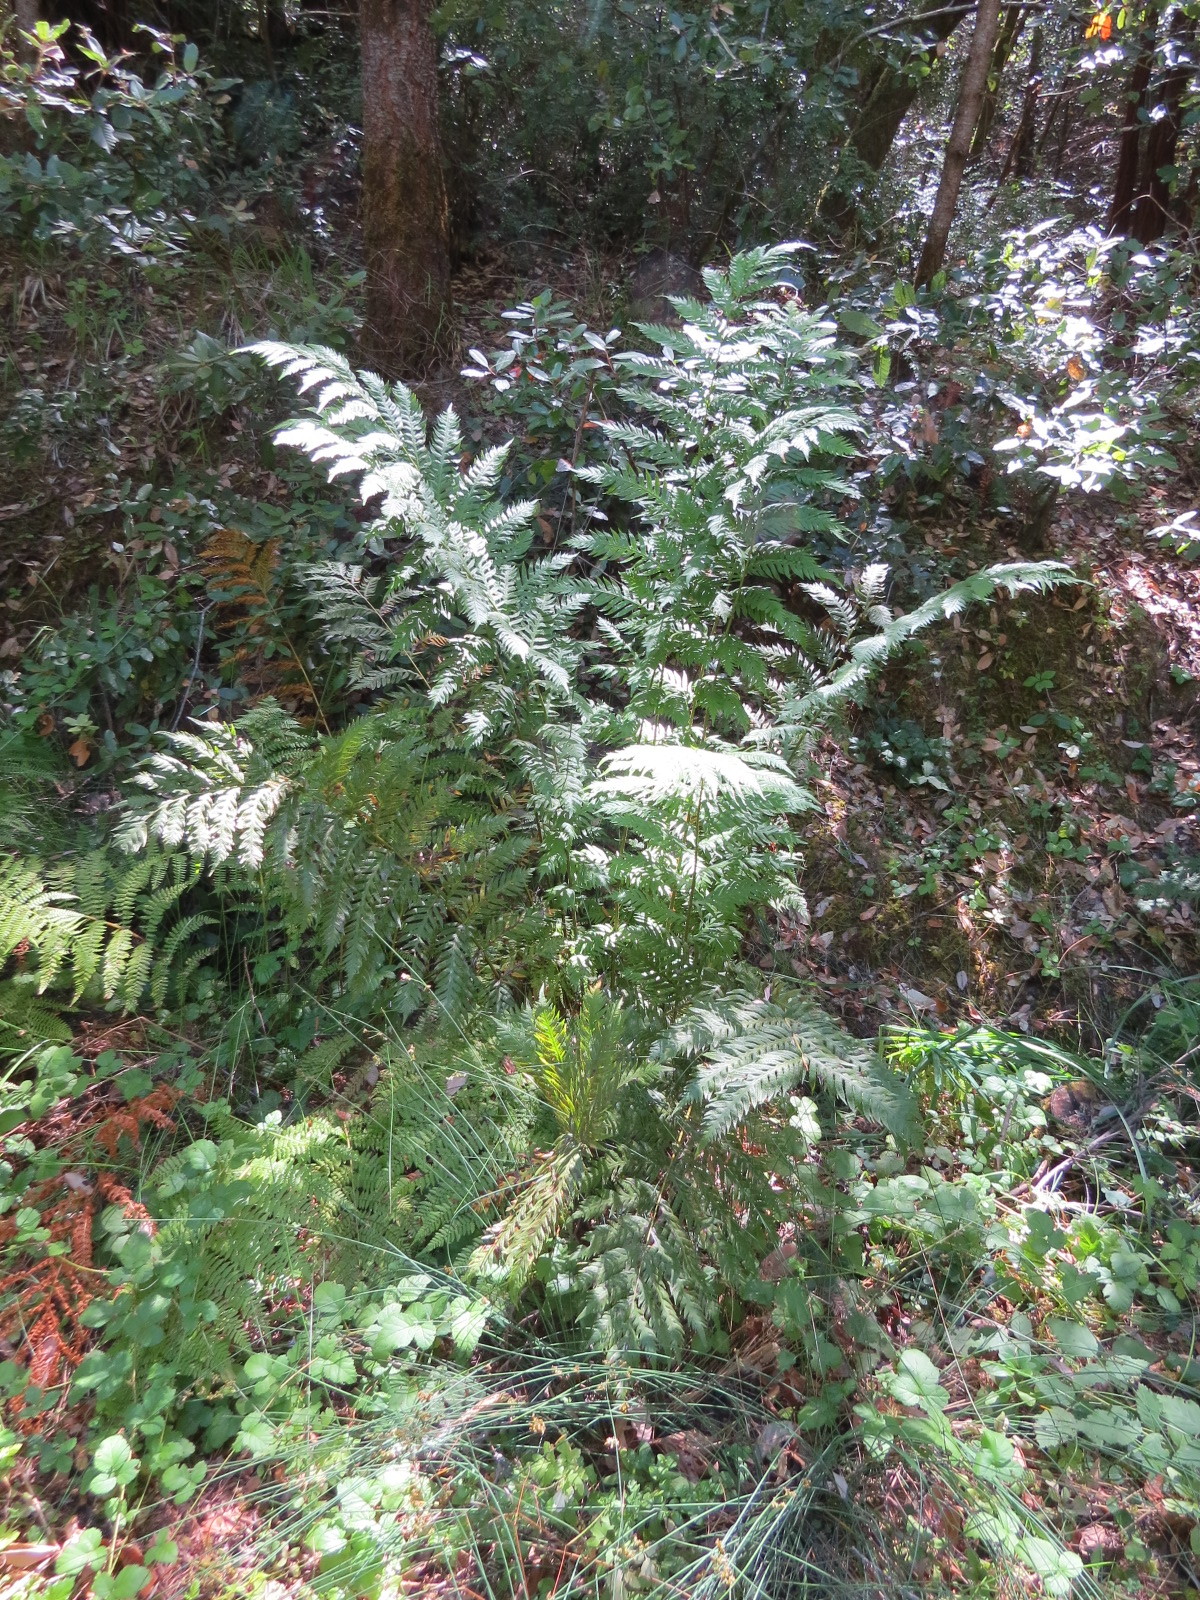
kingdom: Plantae
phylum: Tracheophyta
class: Polypodiopsida
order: Polypodiales
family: Blechnaceae
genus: Woodwardia
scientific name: Woodwardia fimbriata
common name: Giant chain fern
